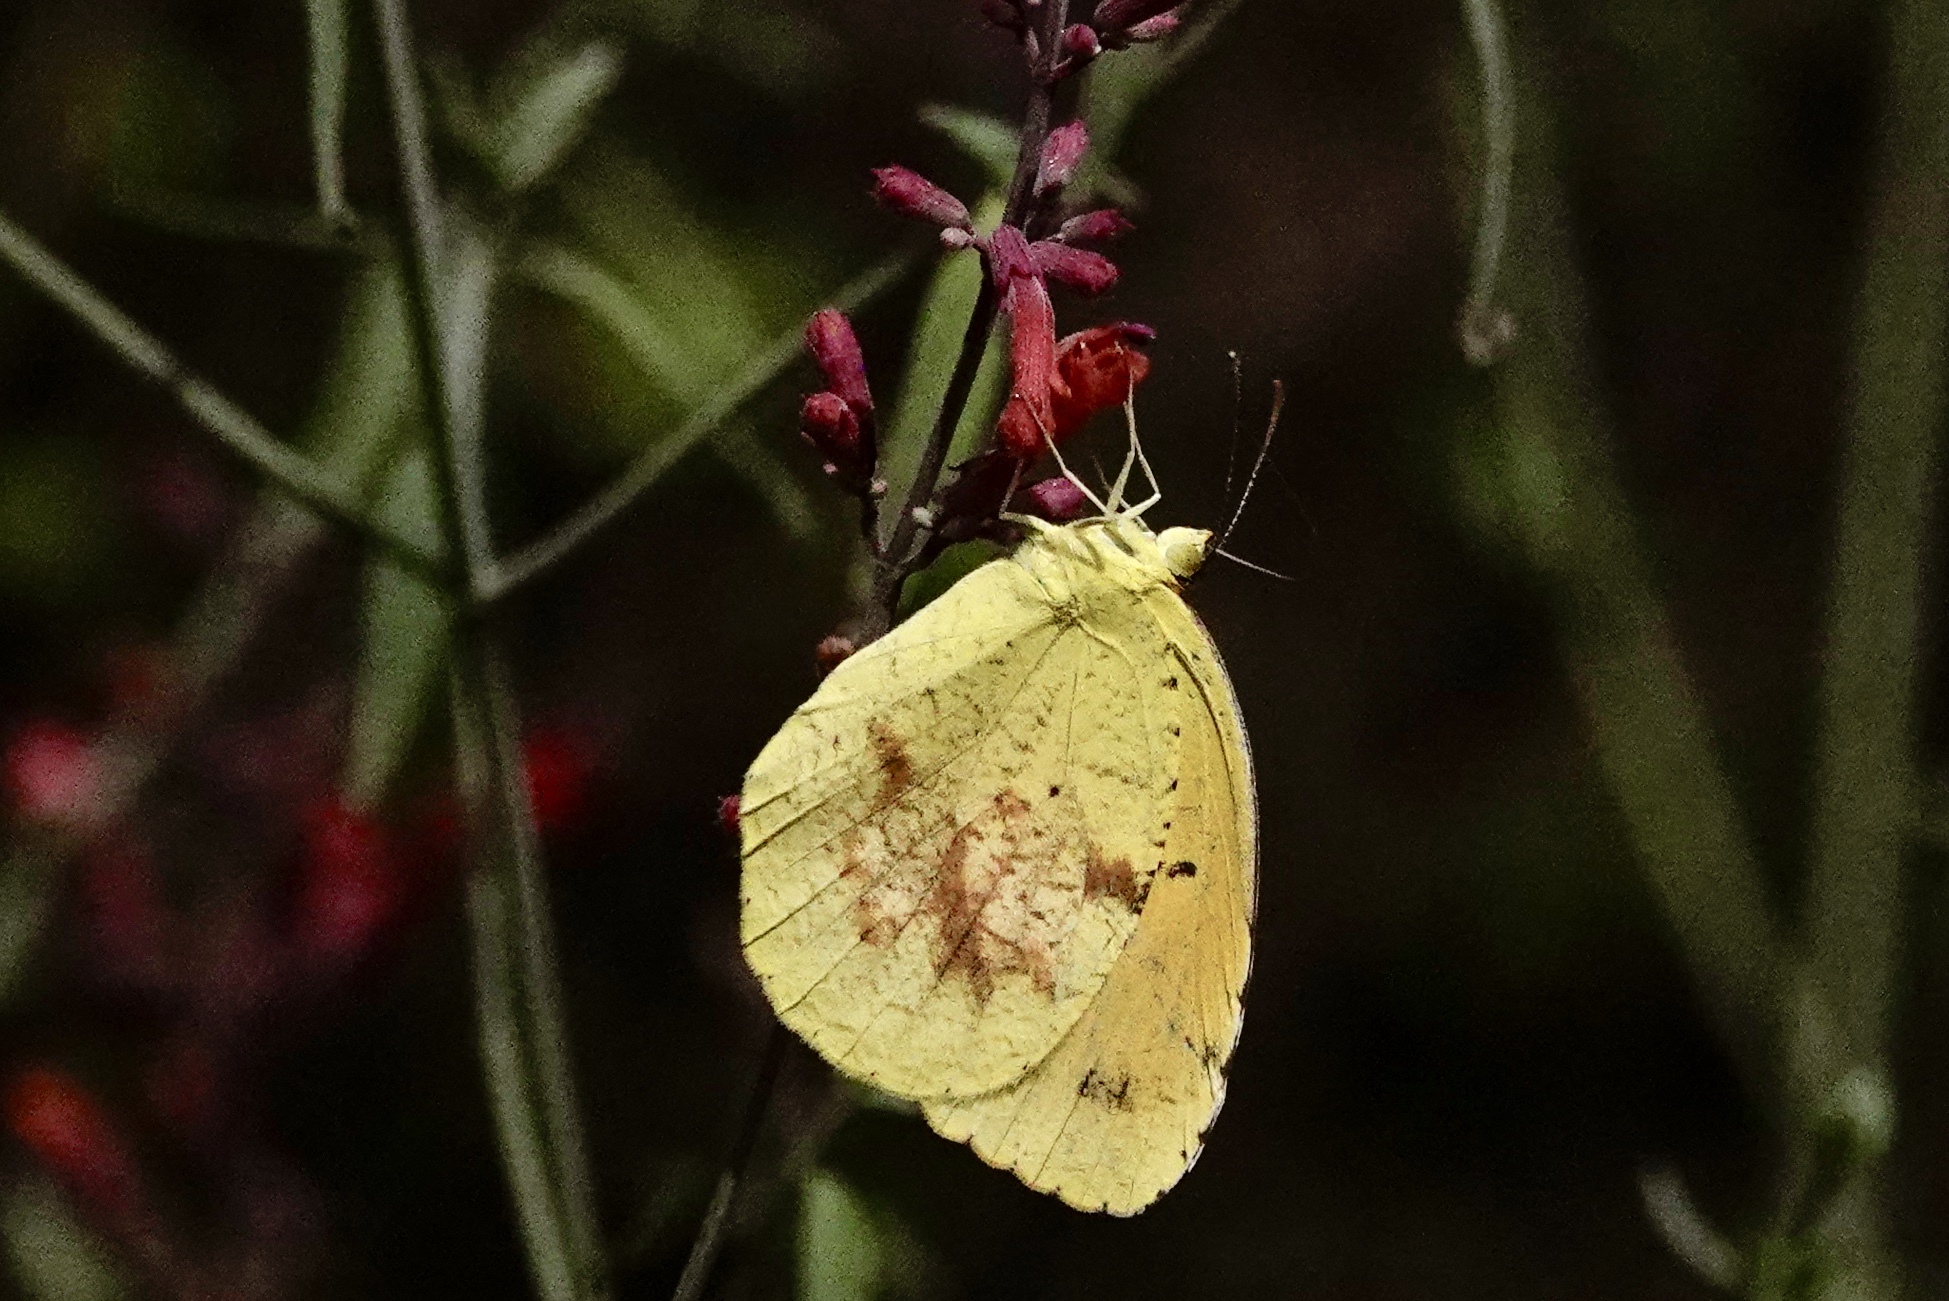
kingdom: Animalia
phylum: Arthropoda
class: Insecta
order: Lepidoptera
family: Pieridae
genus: Abaeis
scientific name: Abaeis nicippe
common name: Sleepy orange
